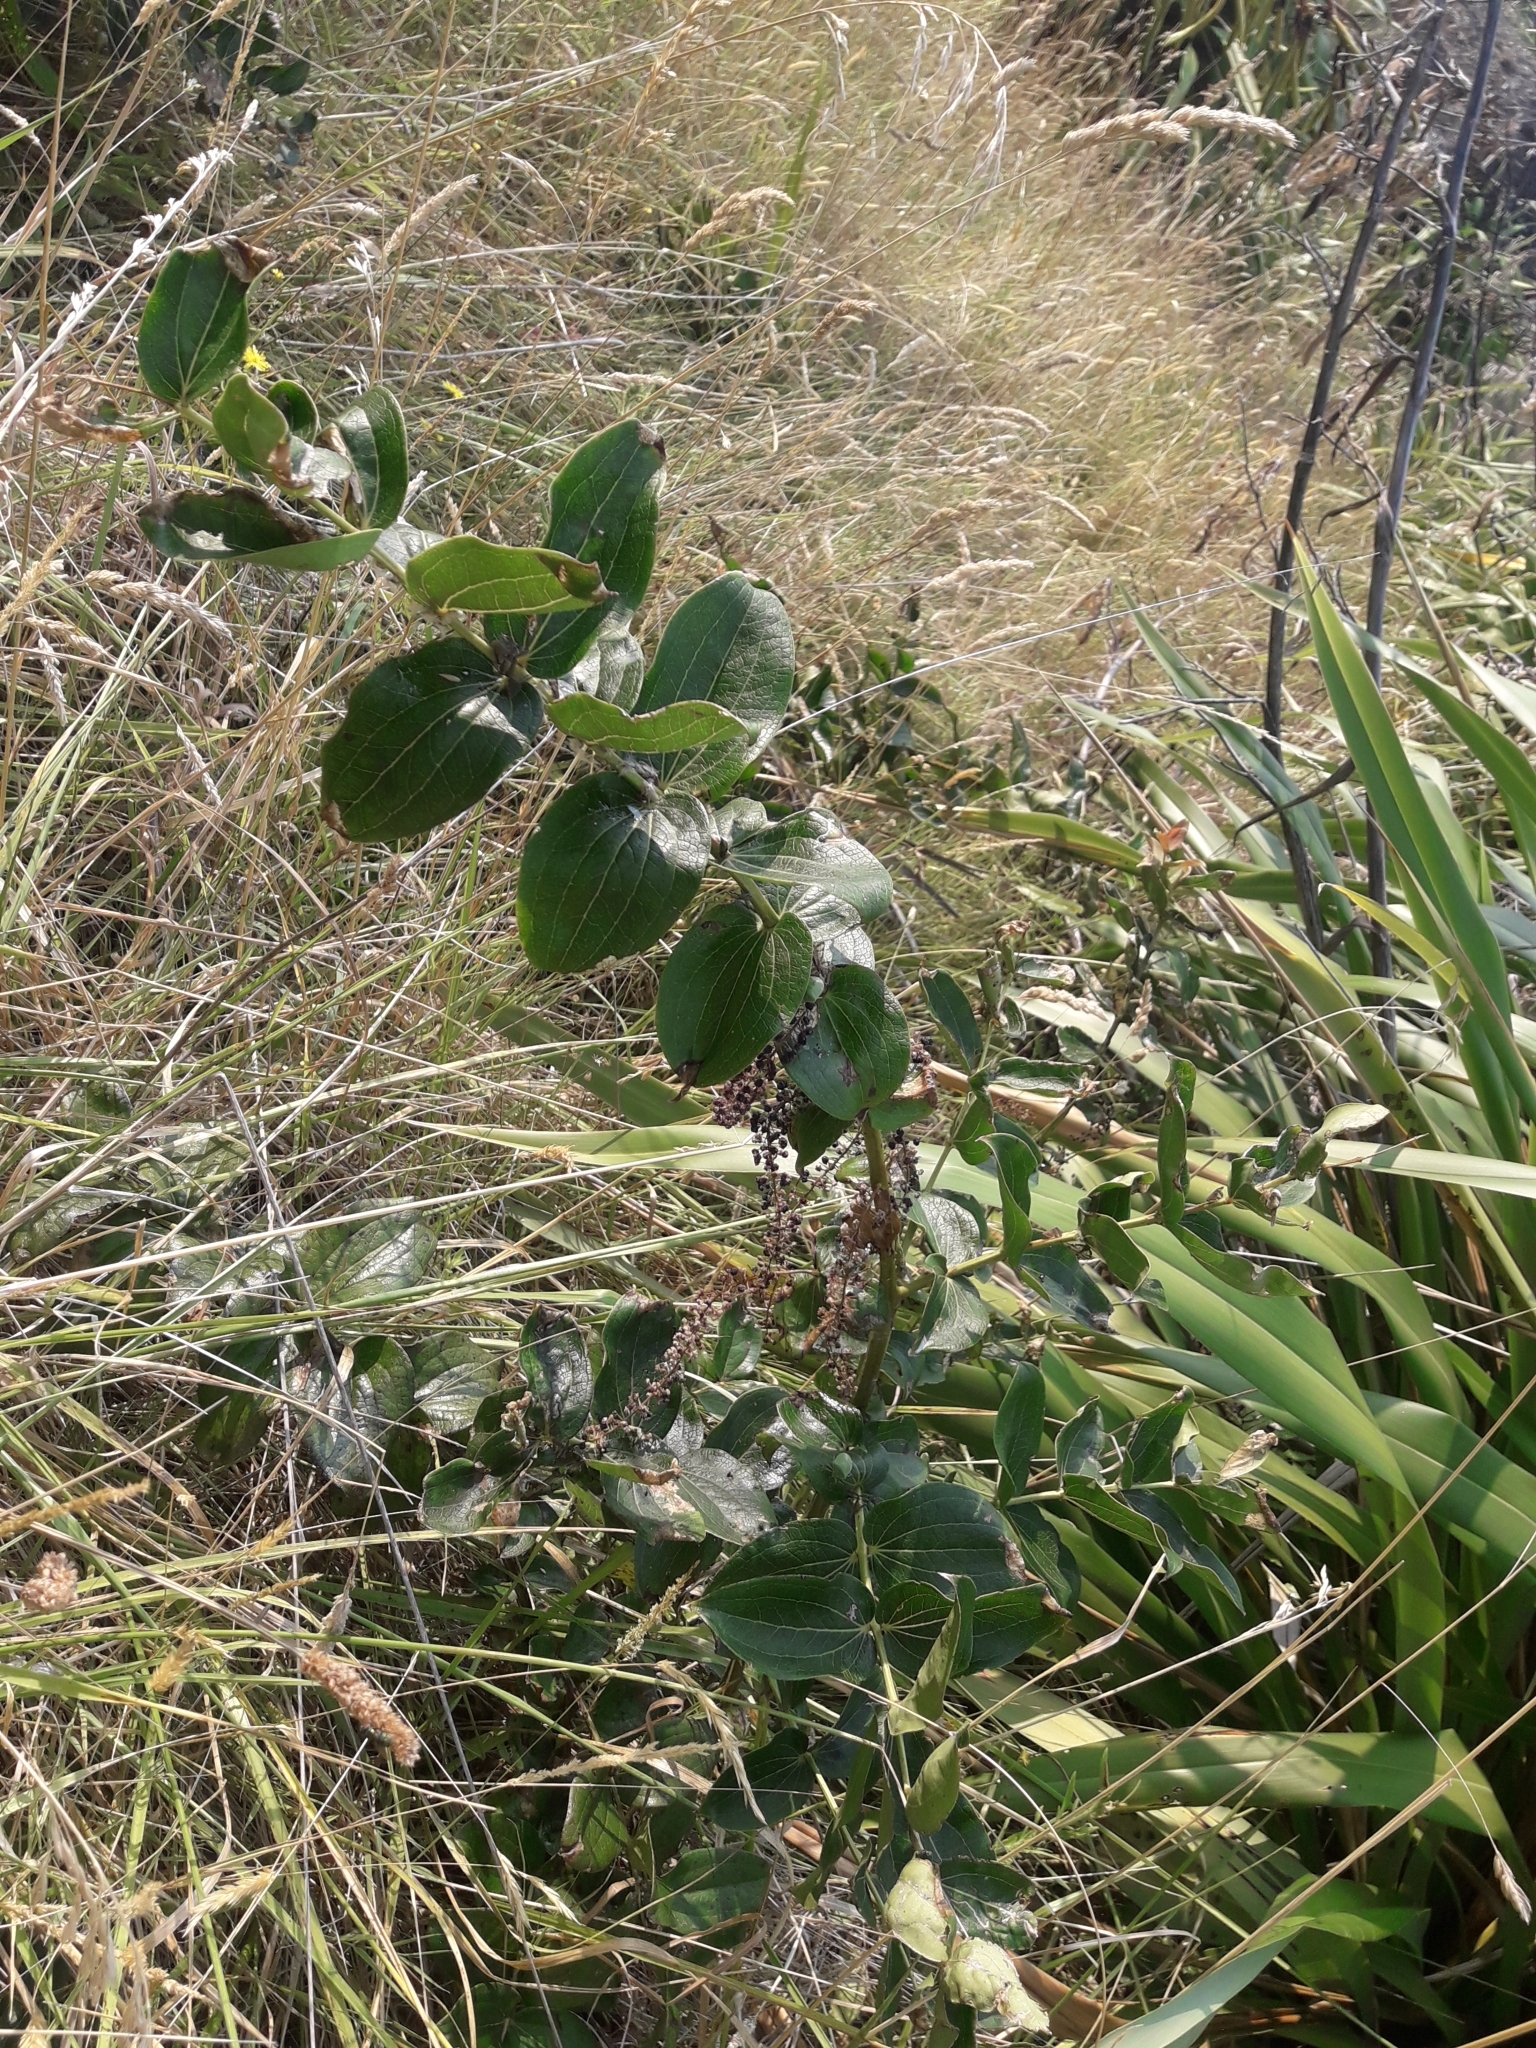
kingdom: Plantae
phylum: Tracheophyta
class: Magnoliopsida
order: Cucurbitales
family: Coriariaceae
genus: Coriaria
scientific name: Coriaria arborea
